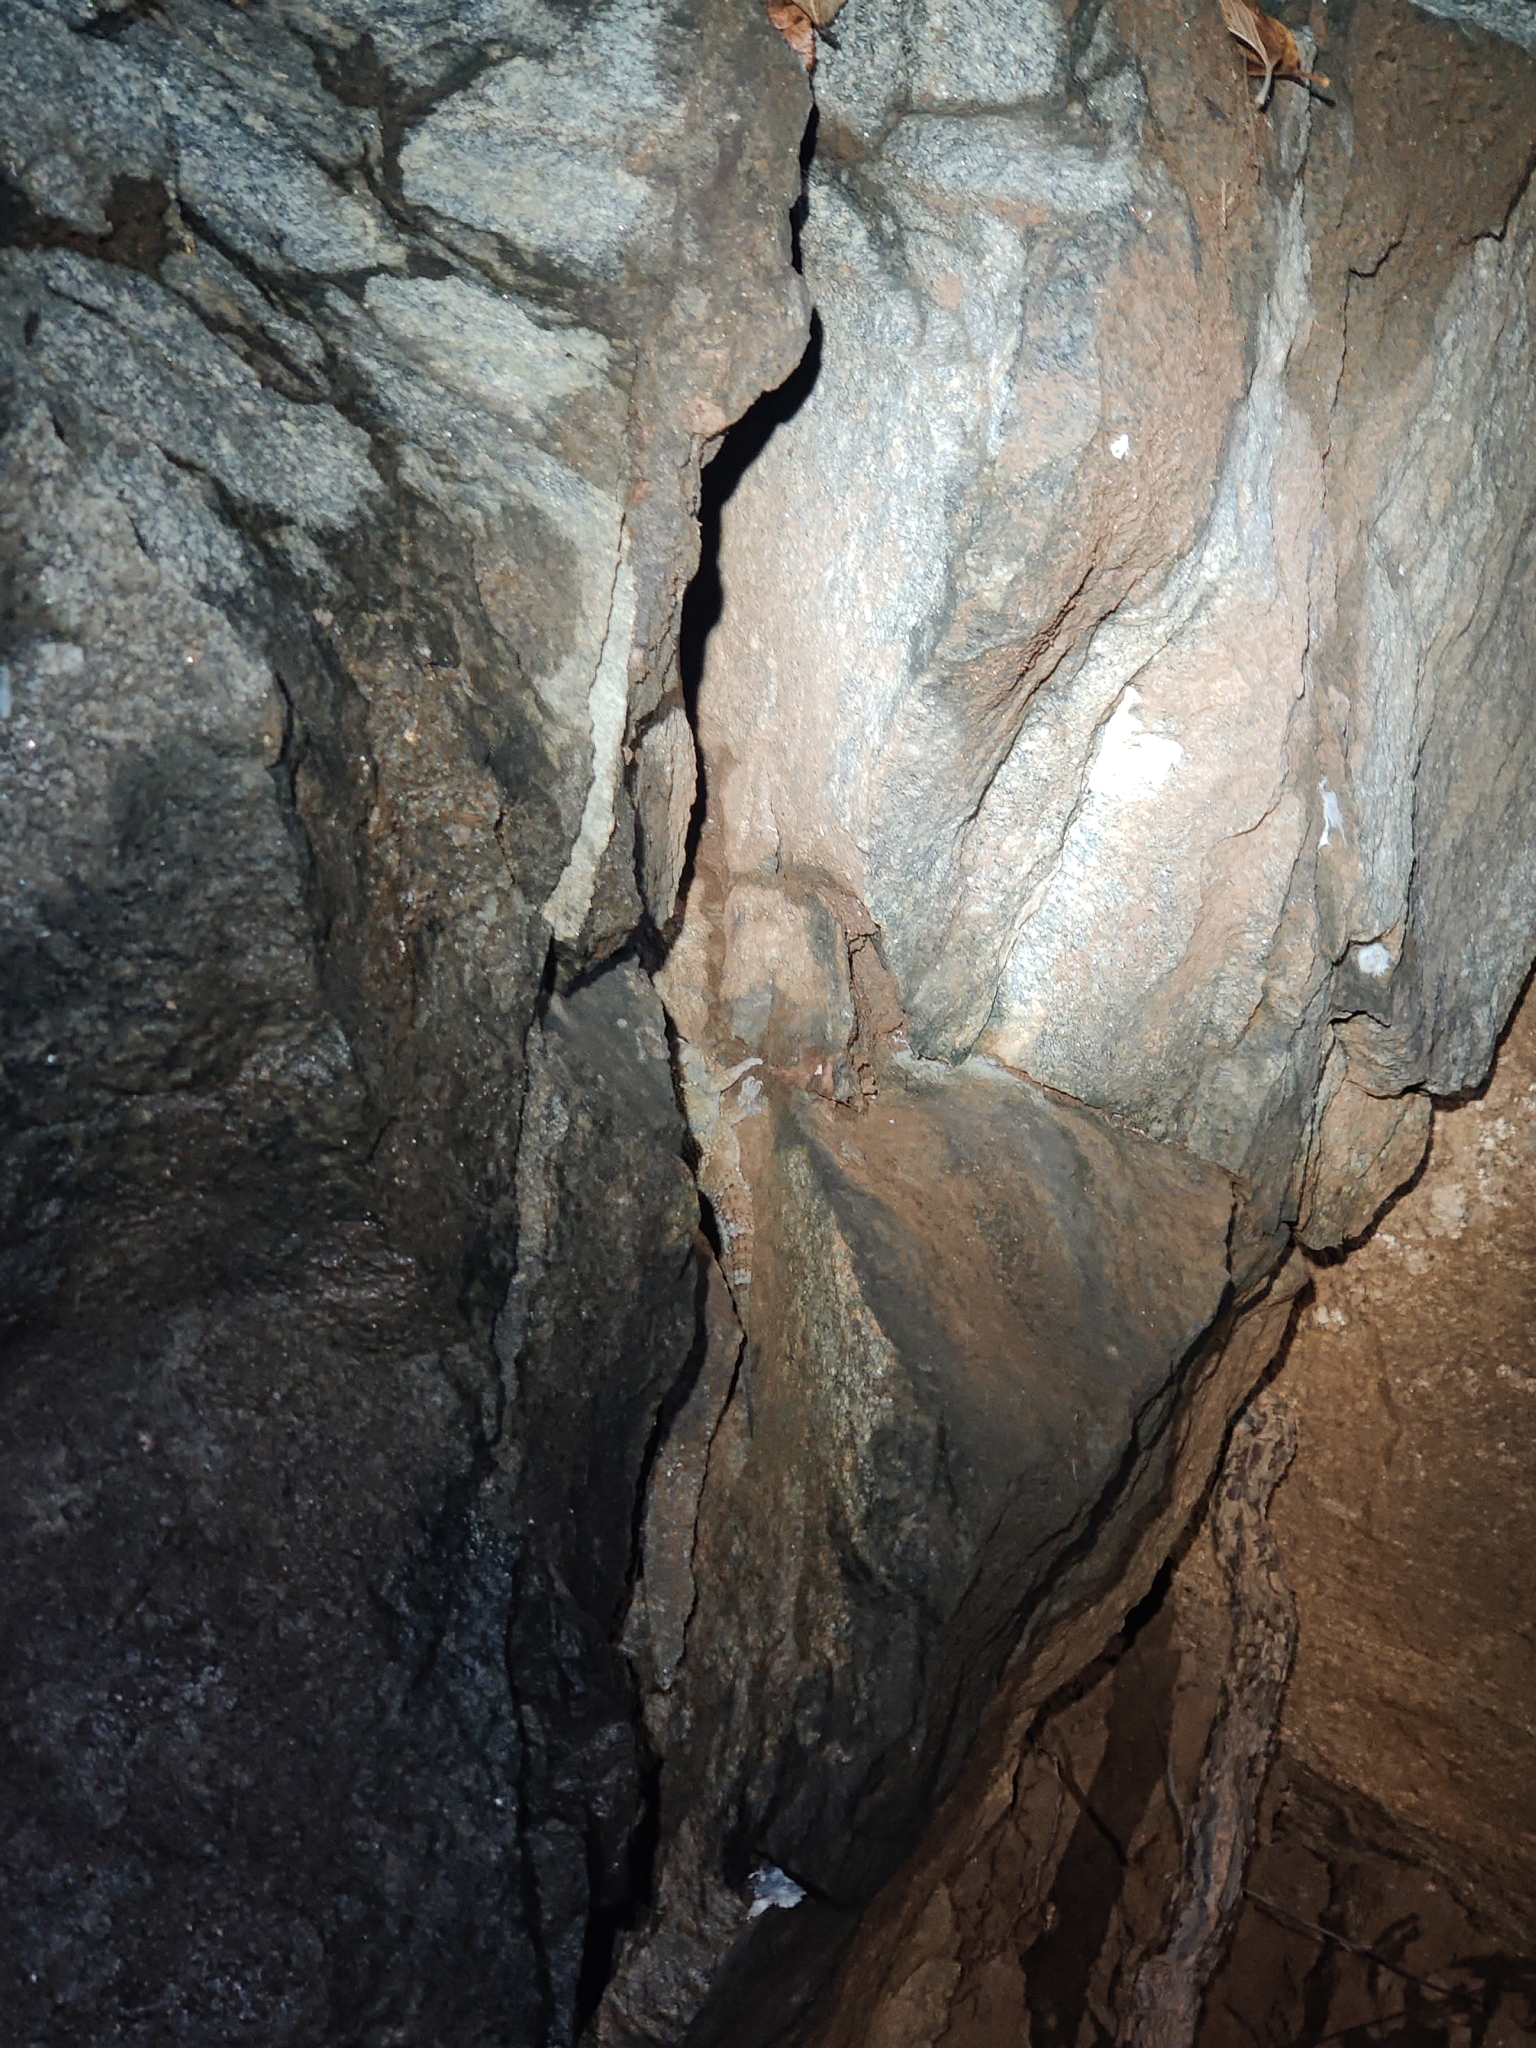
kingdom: Animalia
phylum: Chordata
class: Squamata
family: Gekkonidae
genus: Hemidactylus
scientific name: Hemidactylus sushilduttai
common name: Dutta’s mahendragiri gecko/ hemidactyl
